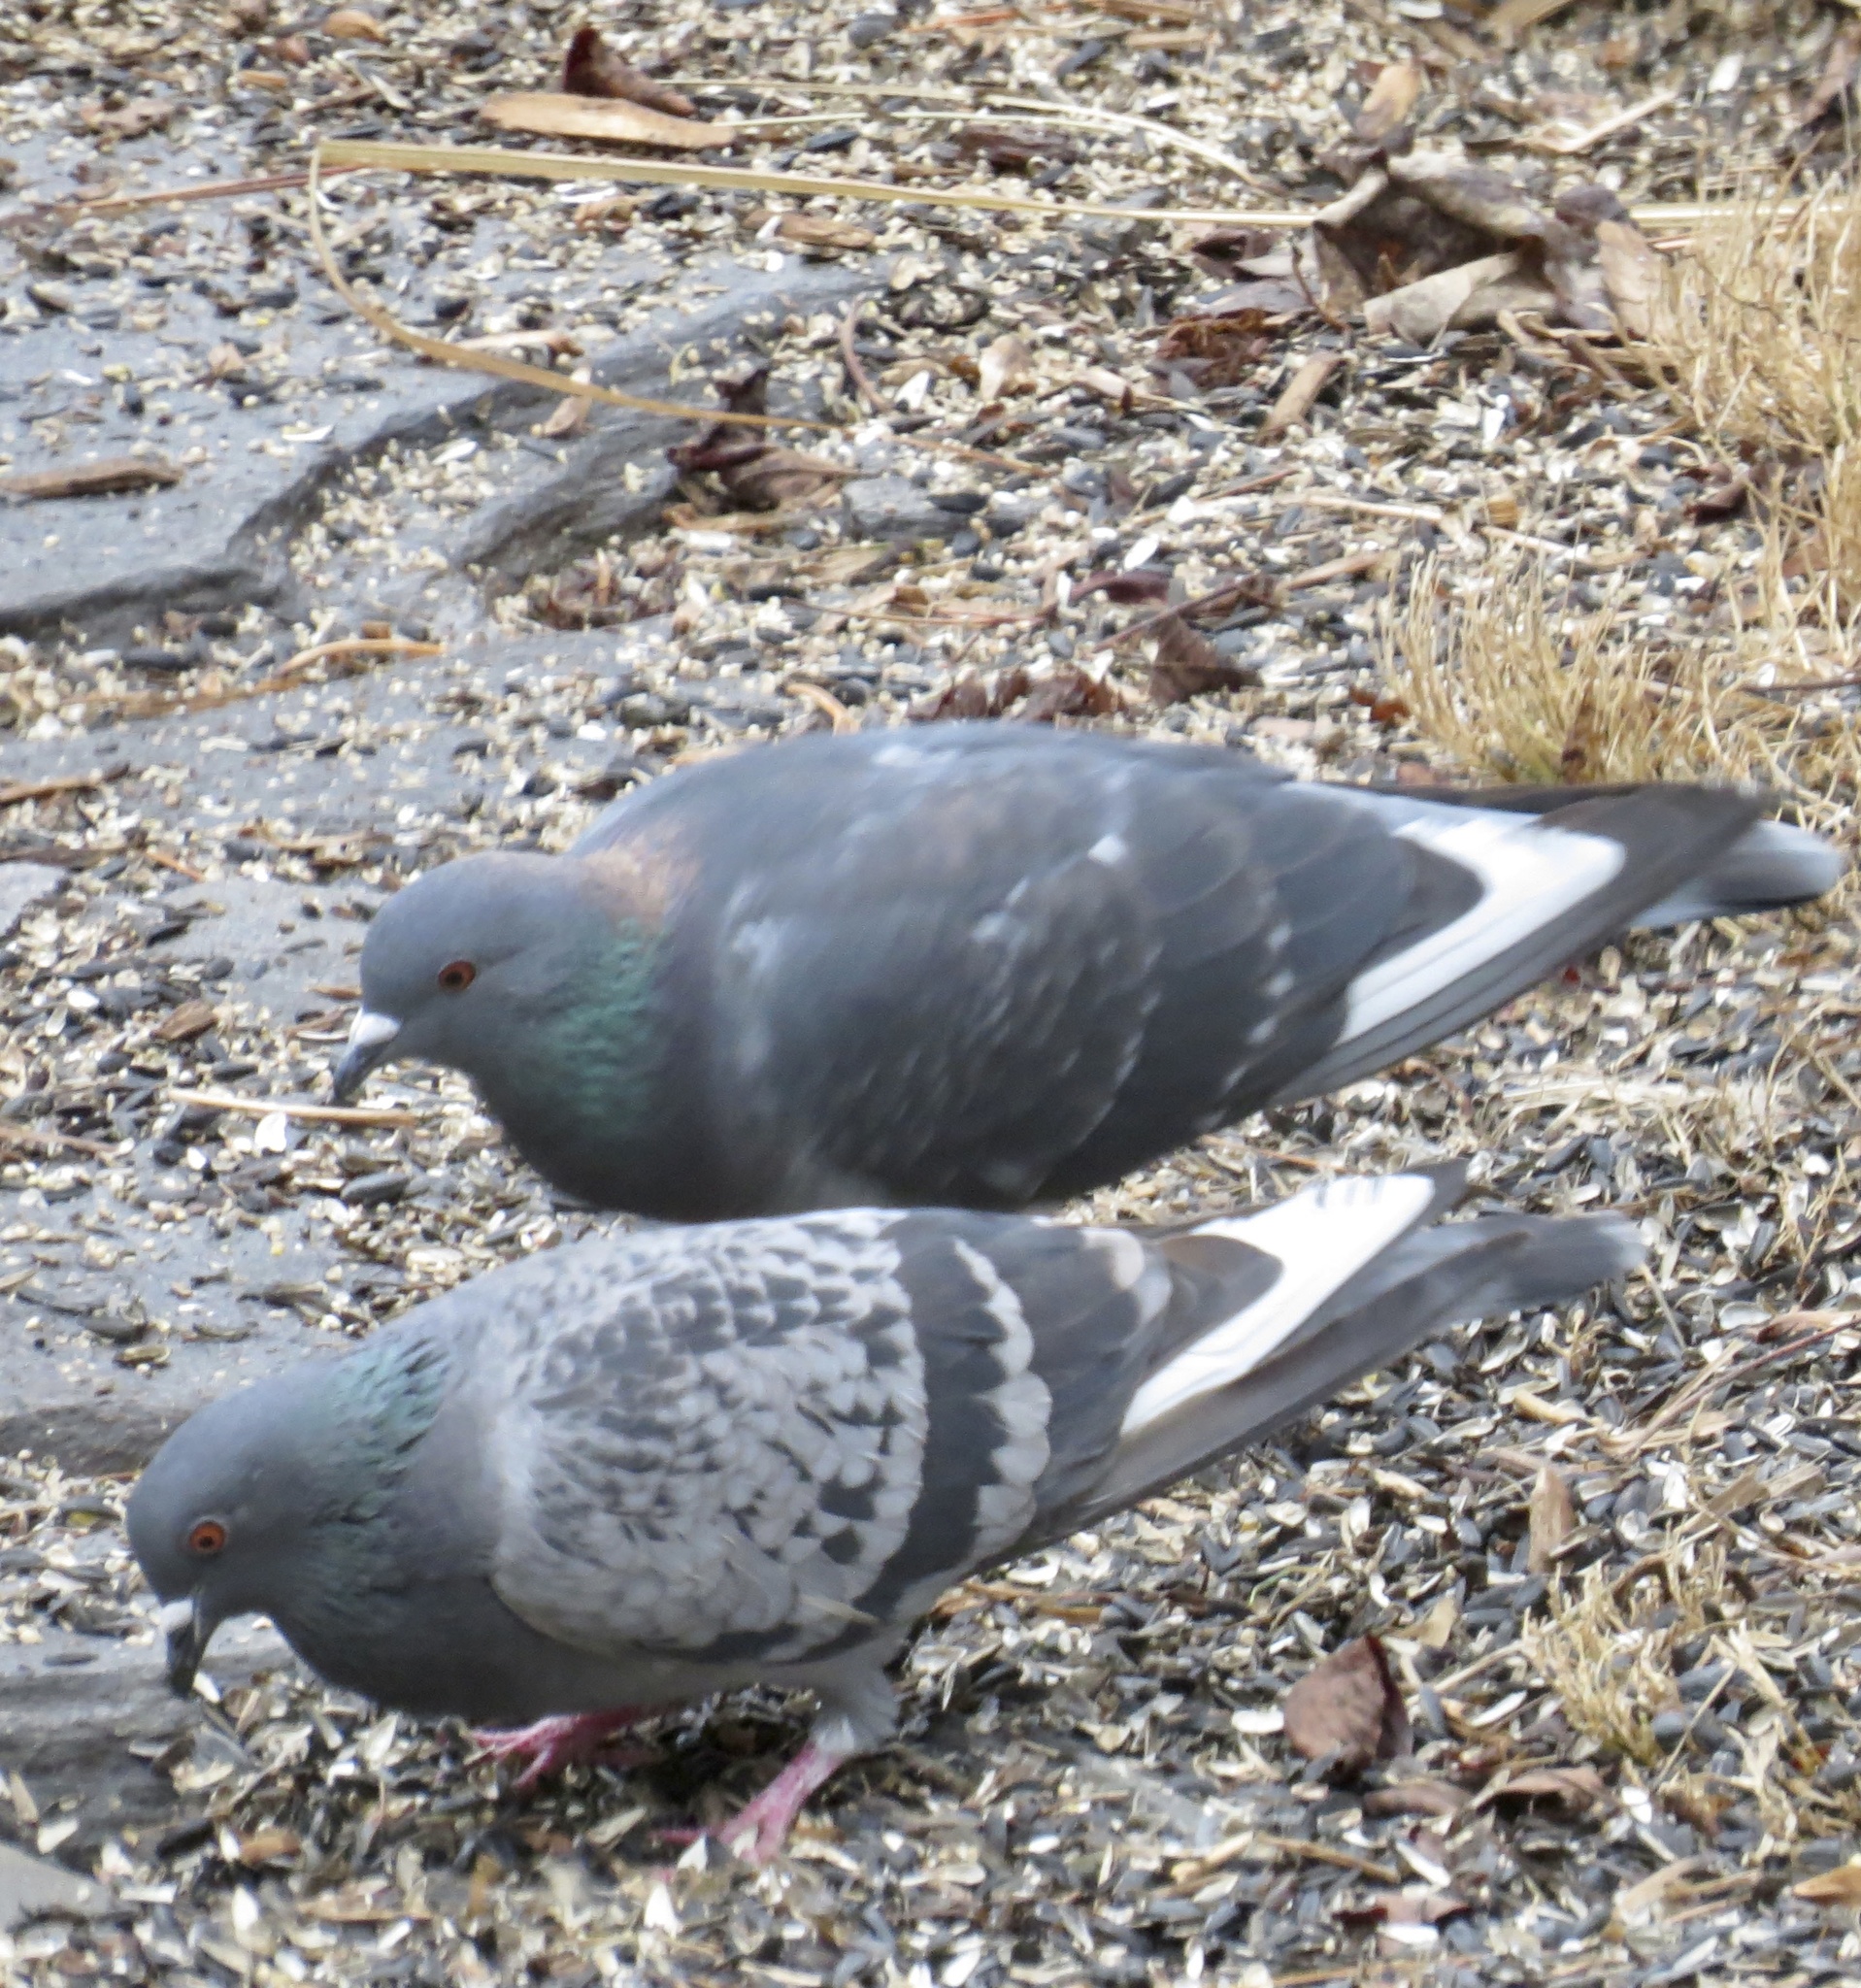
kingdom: Animalia
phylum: Chordata
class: Aves
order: Columbiformes
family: Columbidae
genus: Columba
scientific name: Columba livia
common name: Rock pigeon
